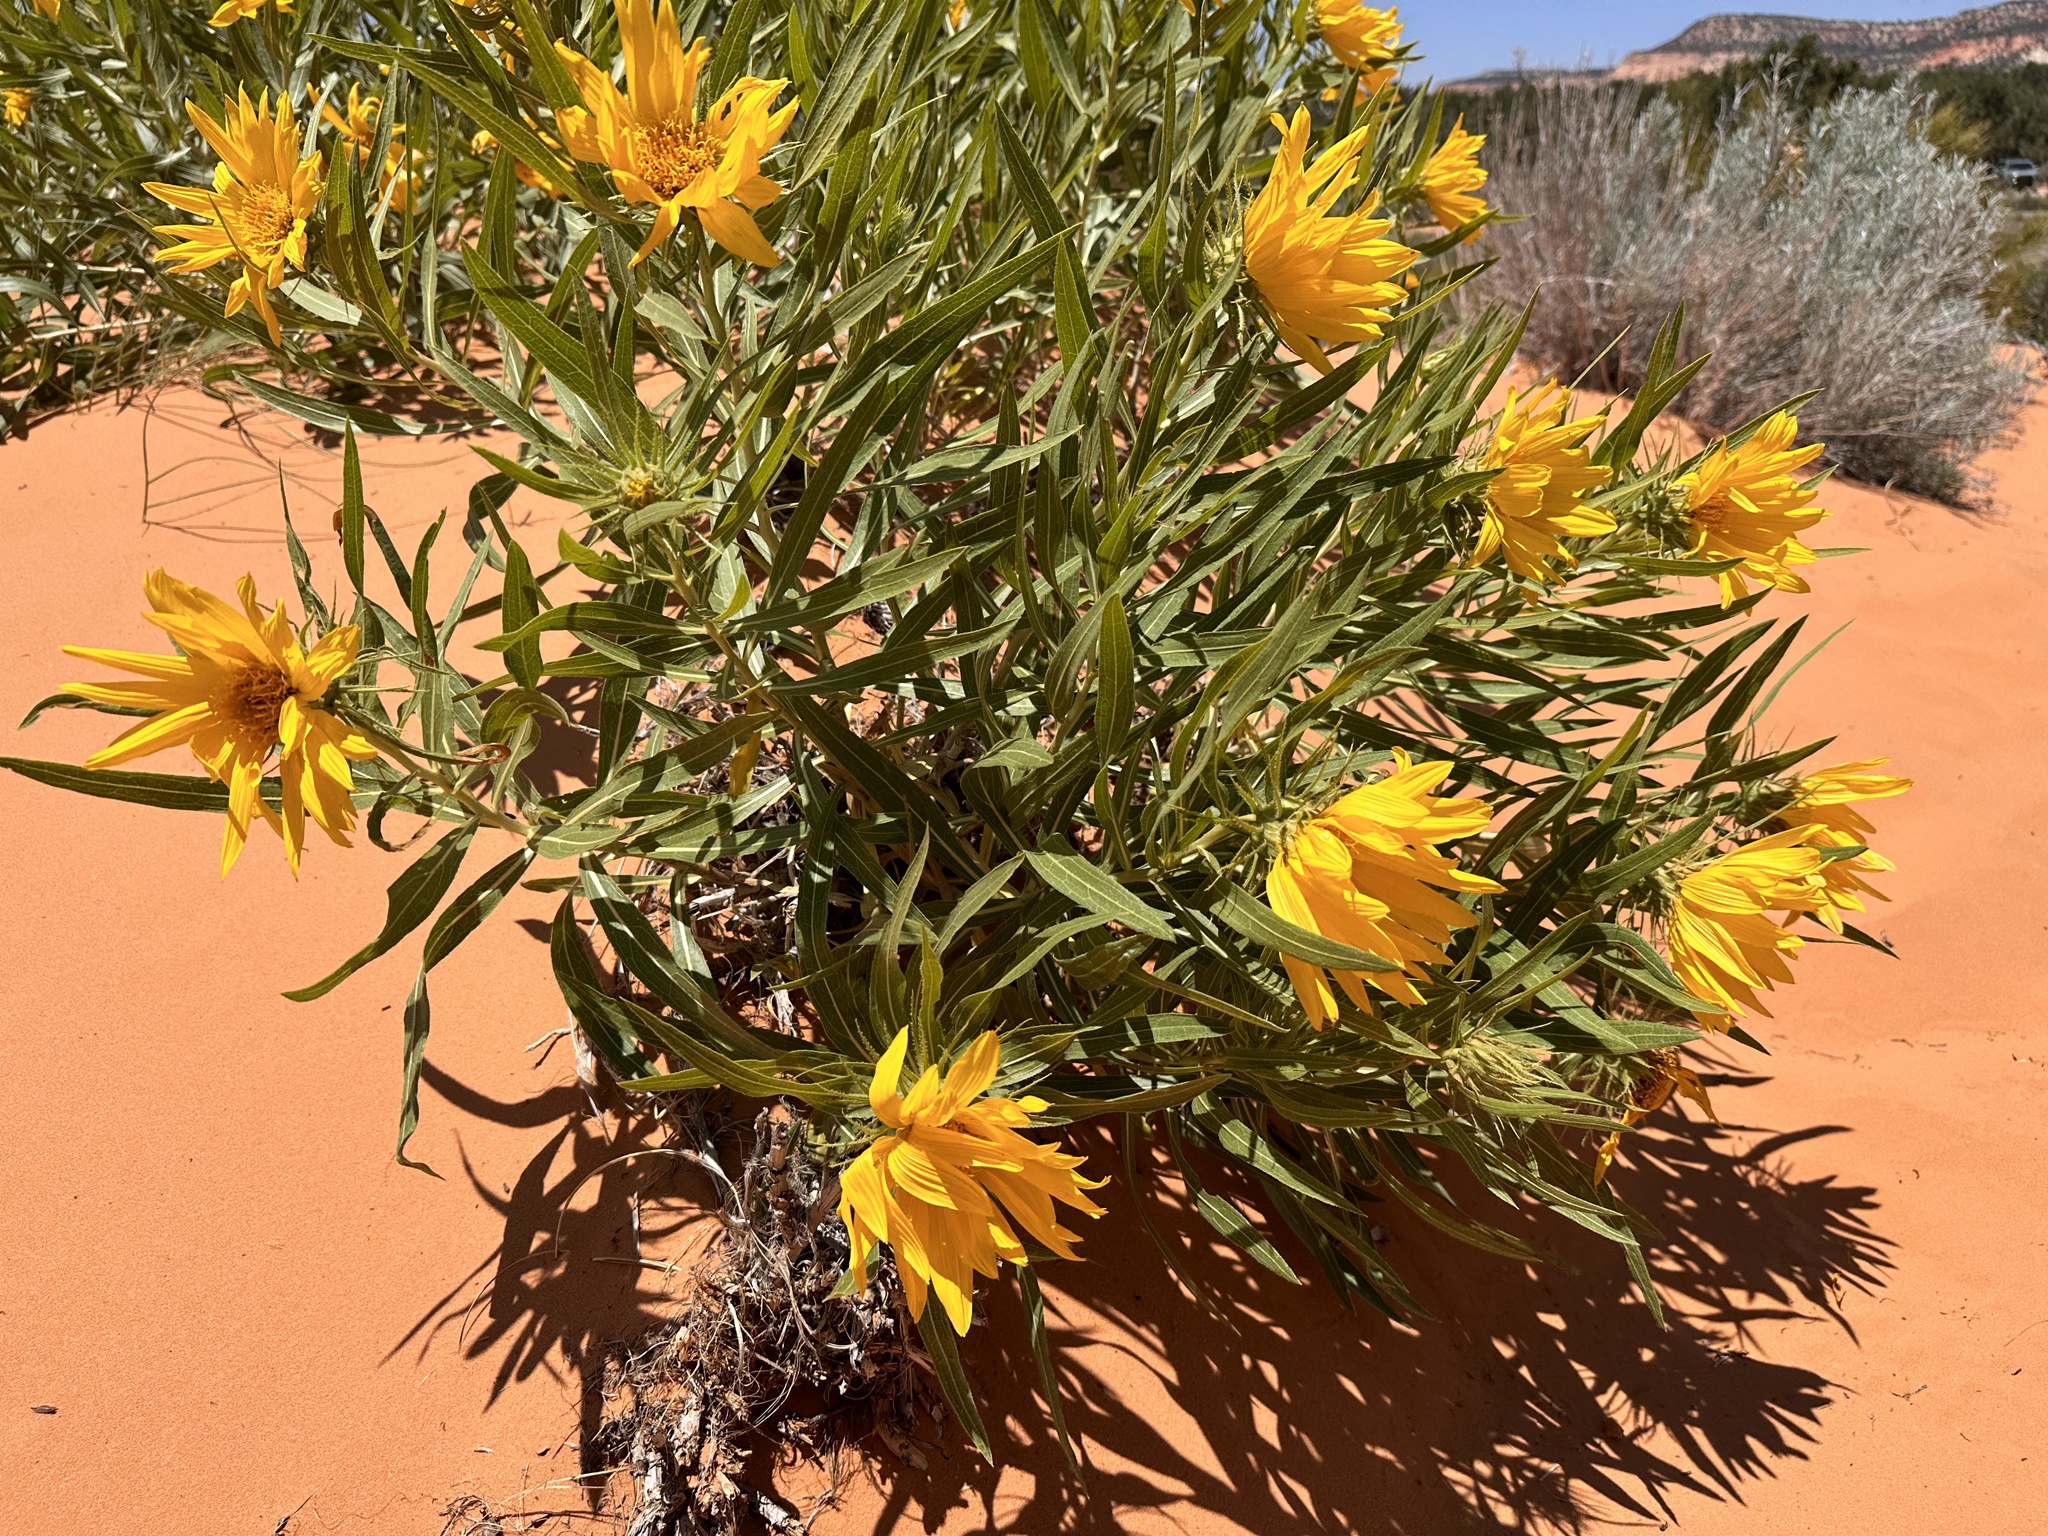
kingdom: Plantae
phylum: Tracheophyta
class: Magnoliopsida
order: Asterales
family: Asteraceae
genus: Scabrethia
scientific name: Scabrethia scabra
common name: Rough mules's-ears
